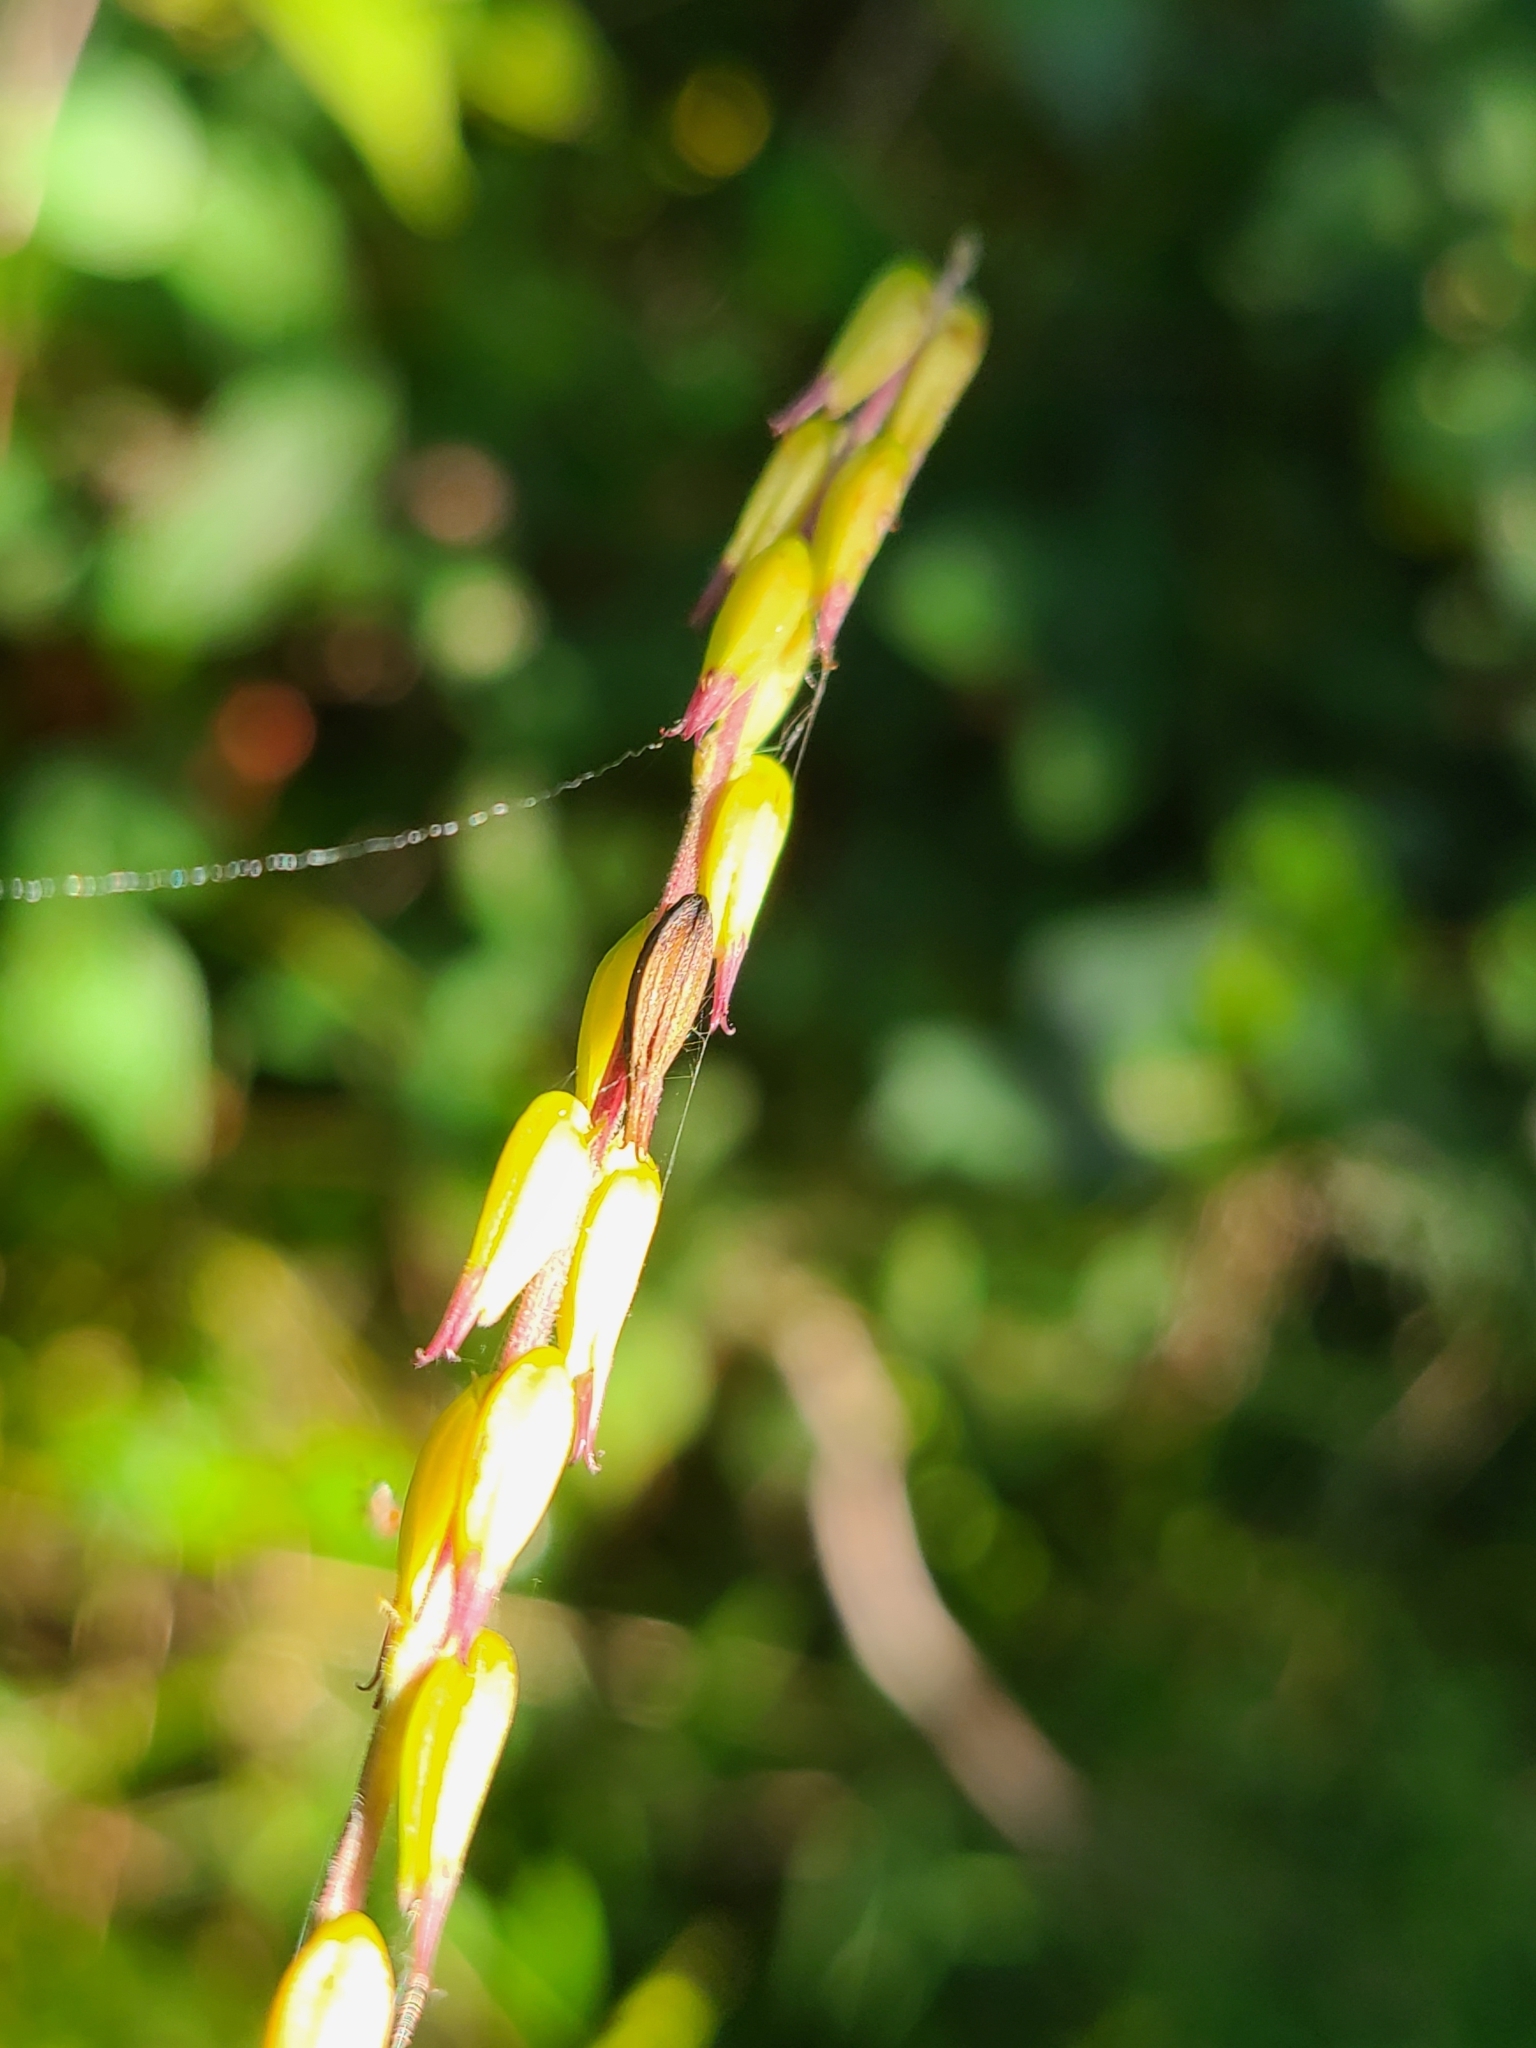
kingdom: Plantae
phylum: Tracheophyta
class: Magnoliopsida
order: Lamiales
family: Phrymaceae
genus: Phryma
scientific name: Phryma leptostachya
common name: American lopseed
